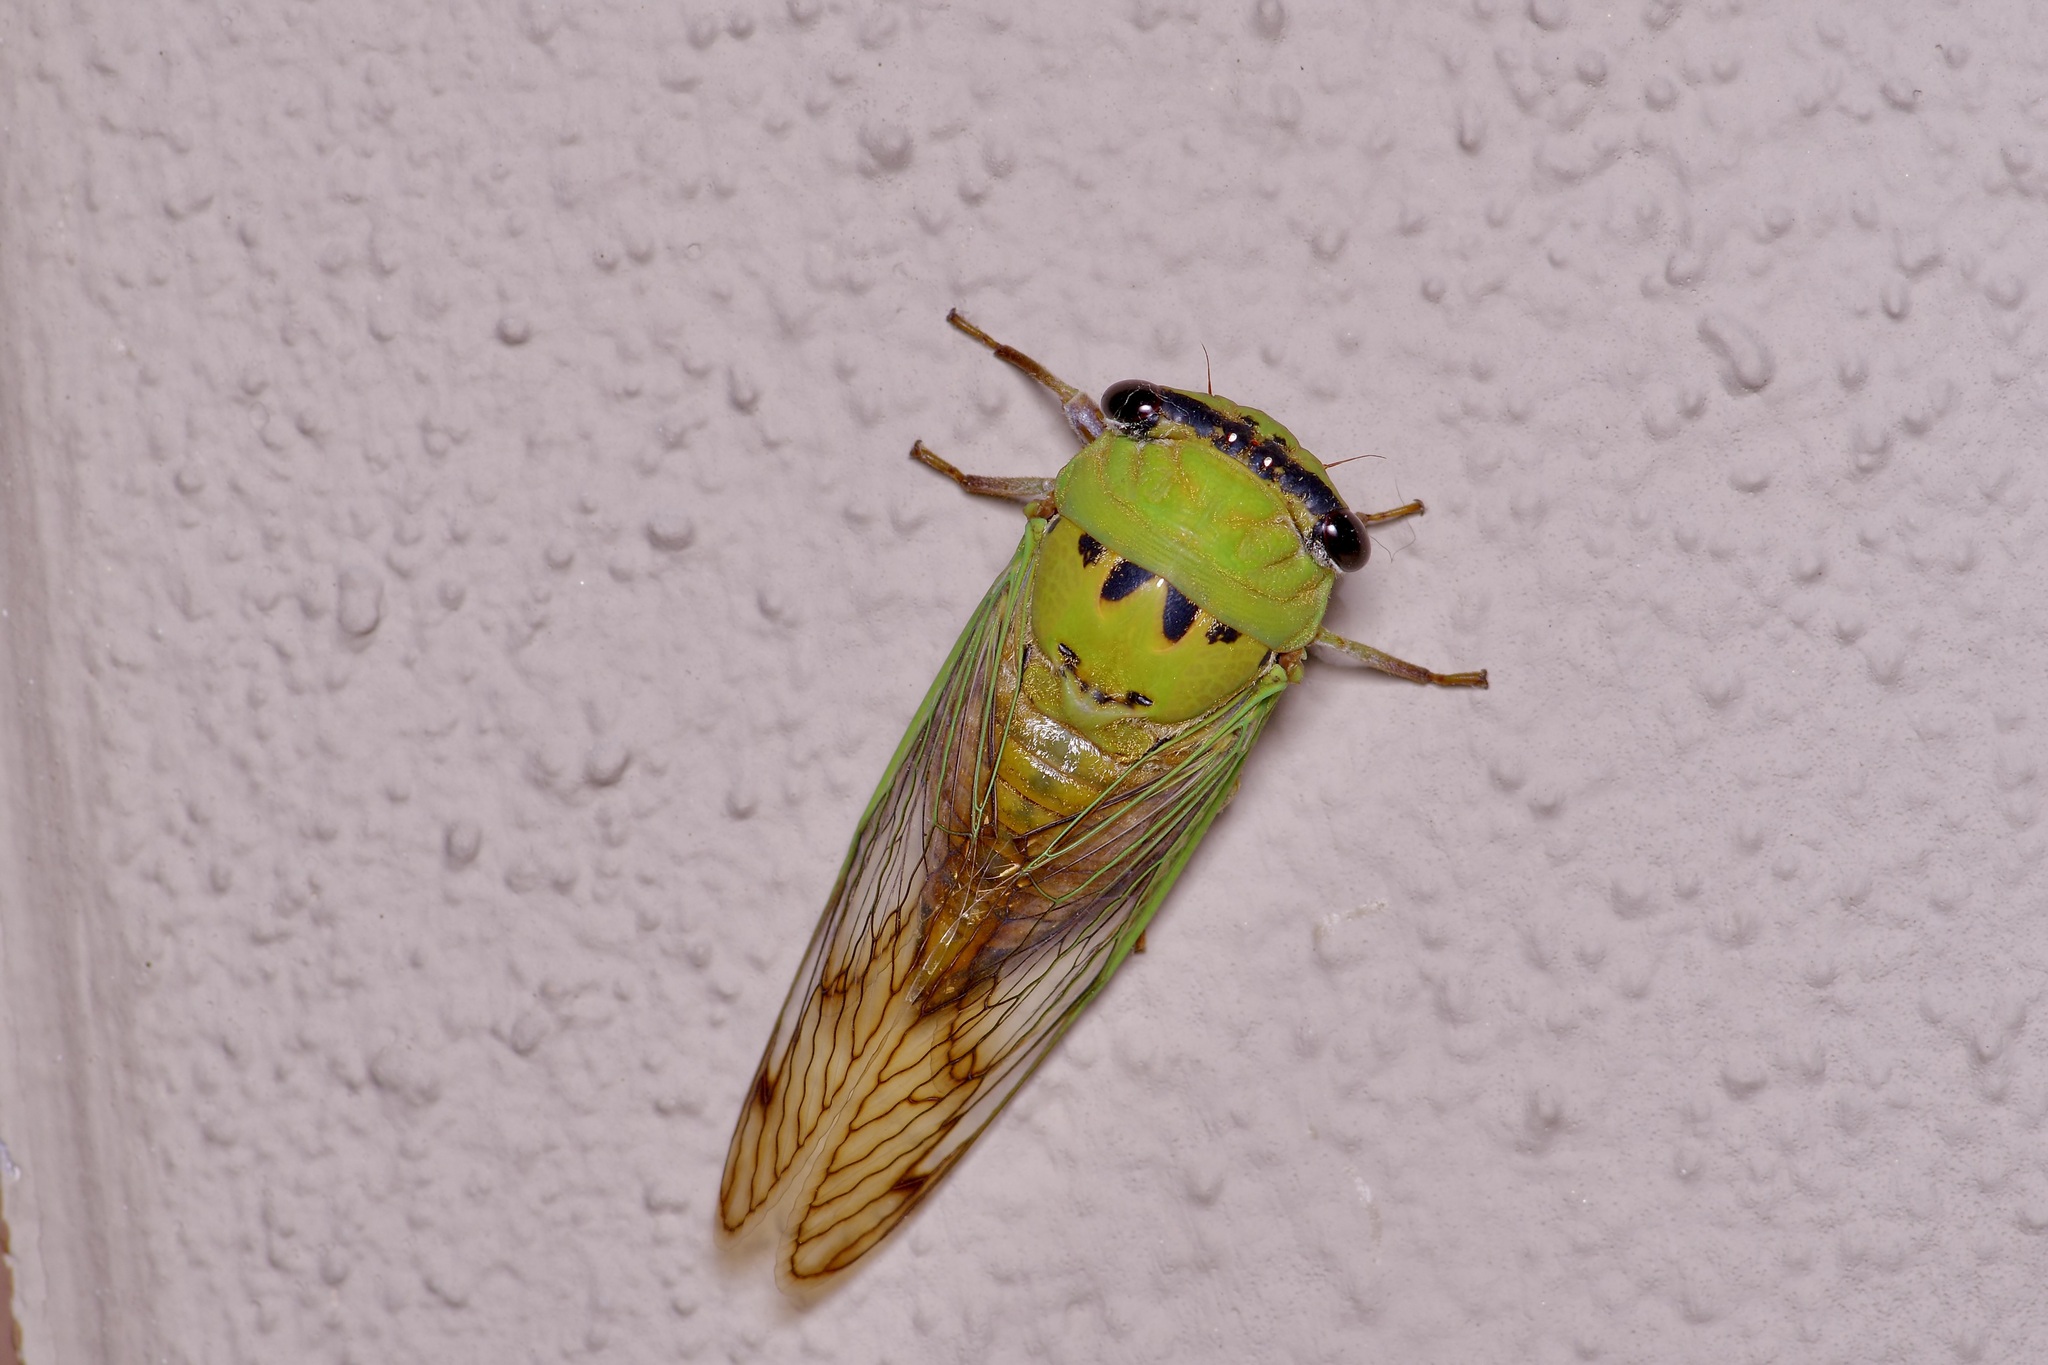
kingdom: Animalia
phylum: Arthropoda
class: Insecta
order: Hemiptera
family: Cicadidae
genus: Neotibicen
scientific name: Neotibicen superbus
